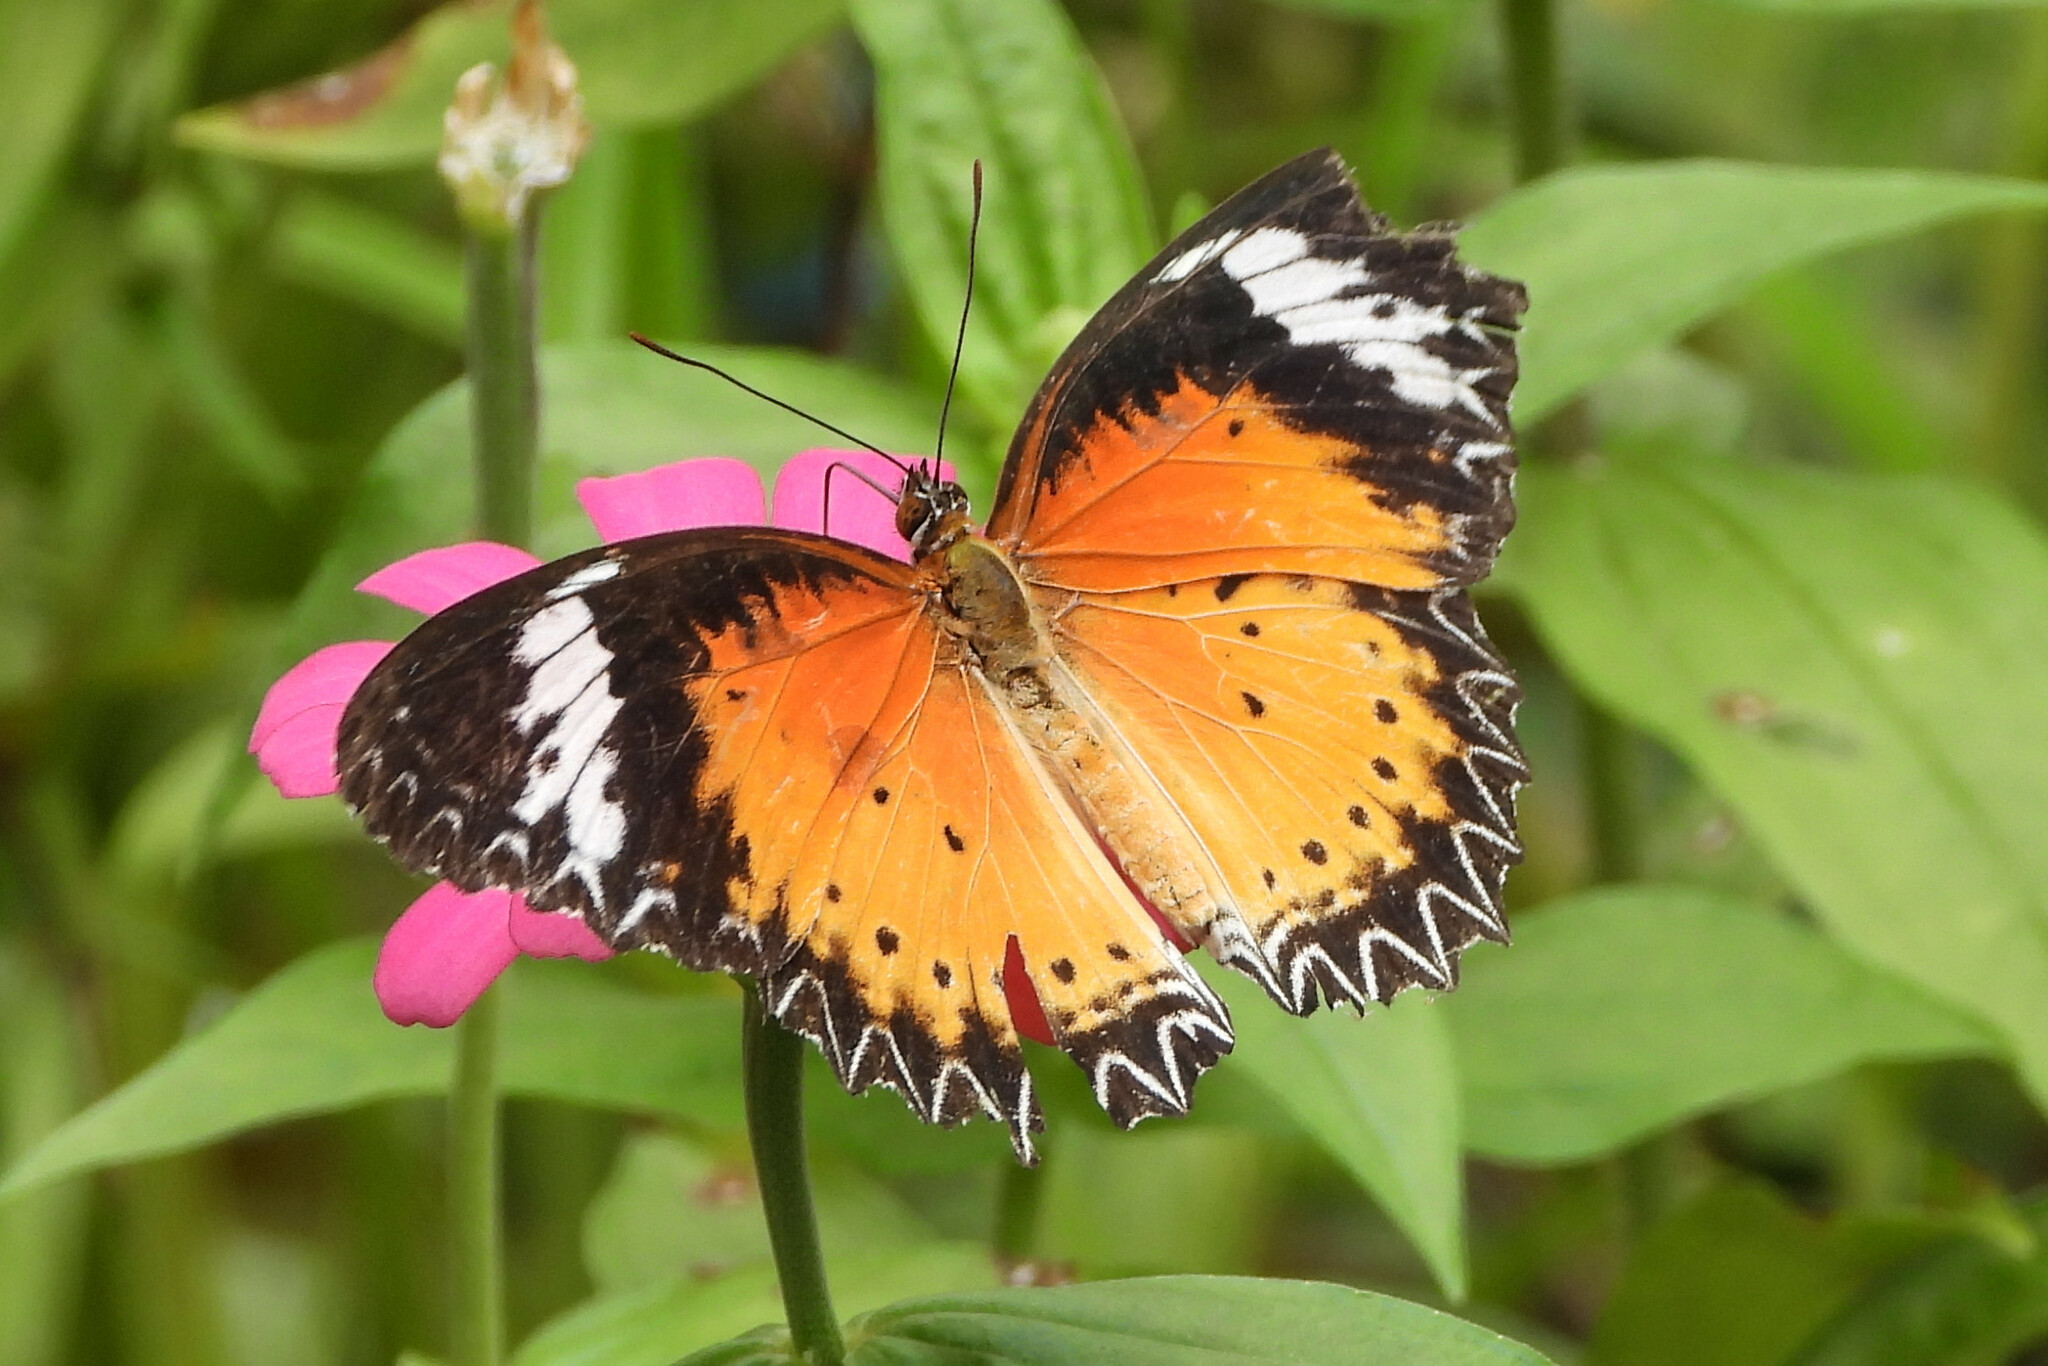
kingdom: Animalia
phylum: Arthropoda
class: Insecta
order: Lepidoptera
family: Nymphalidae
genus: Cethosia
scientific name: Cethosia cyane
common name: Leopard lacewing butterfly
